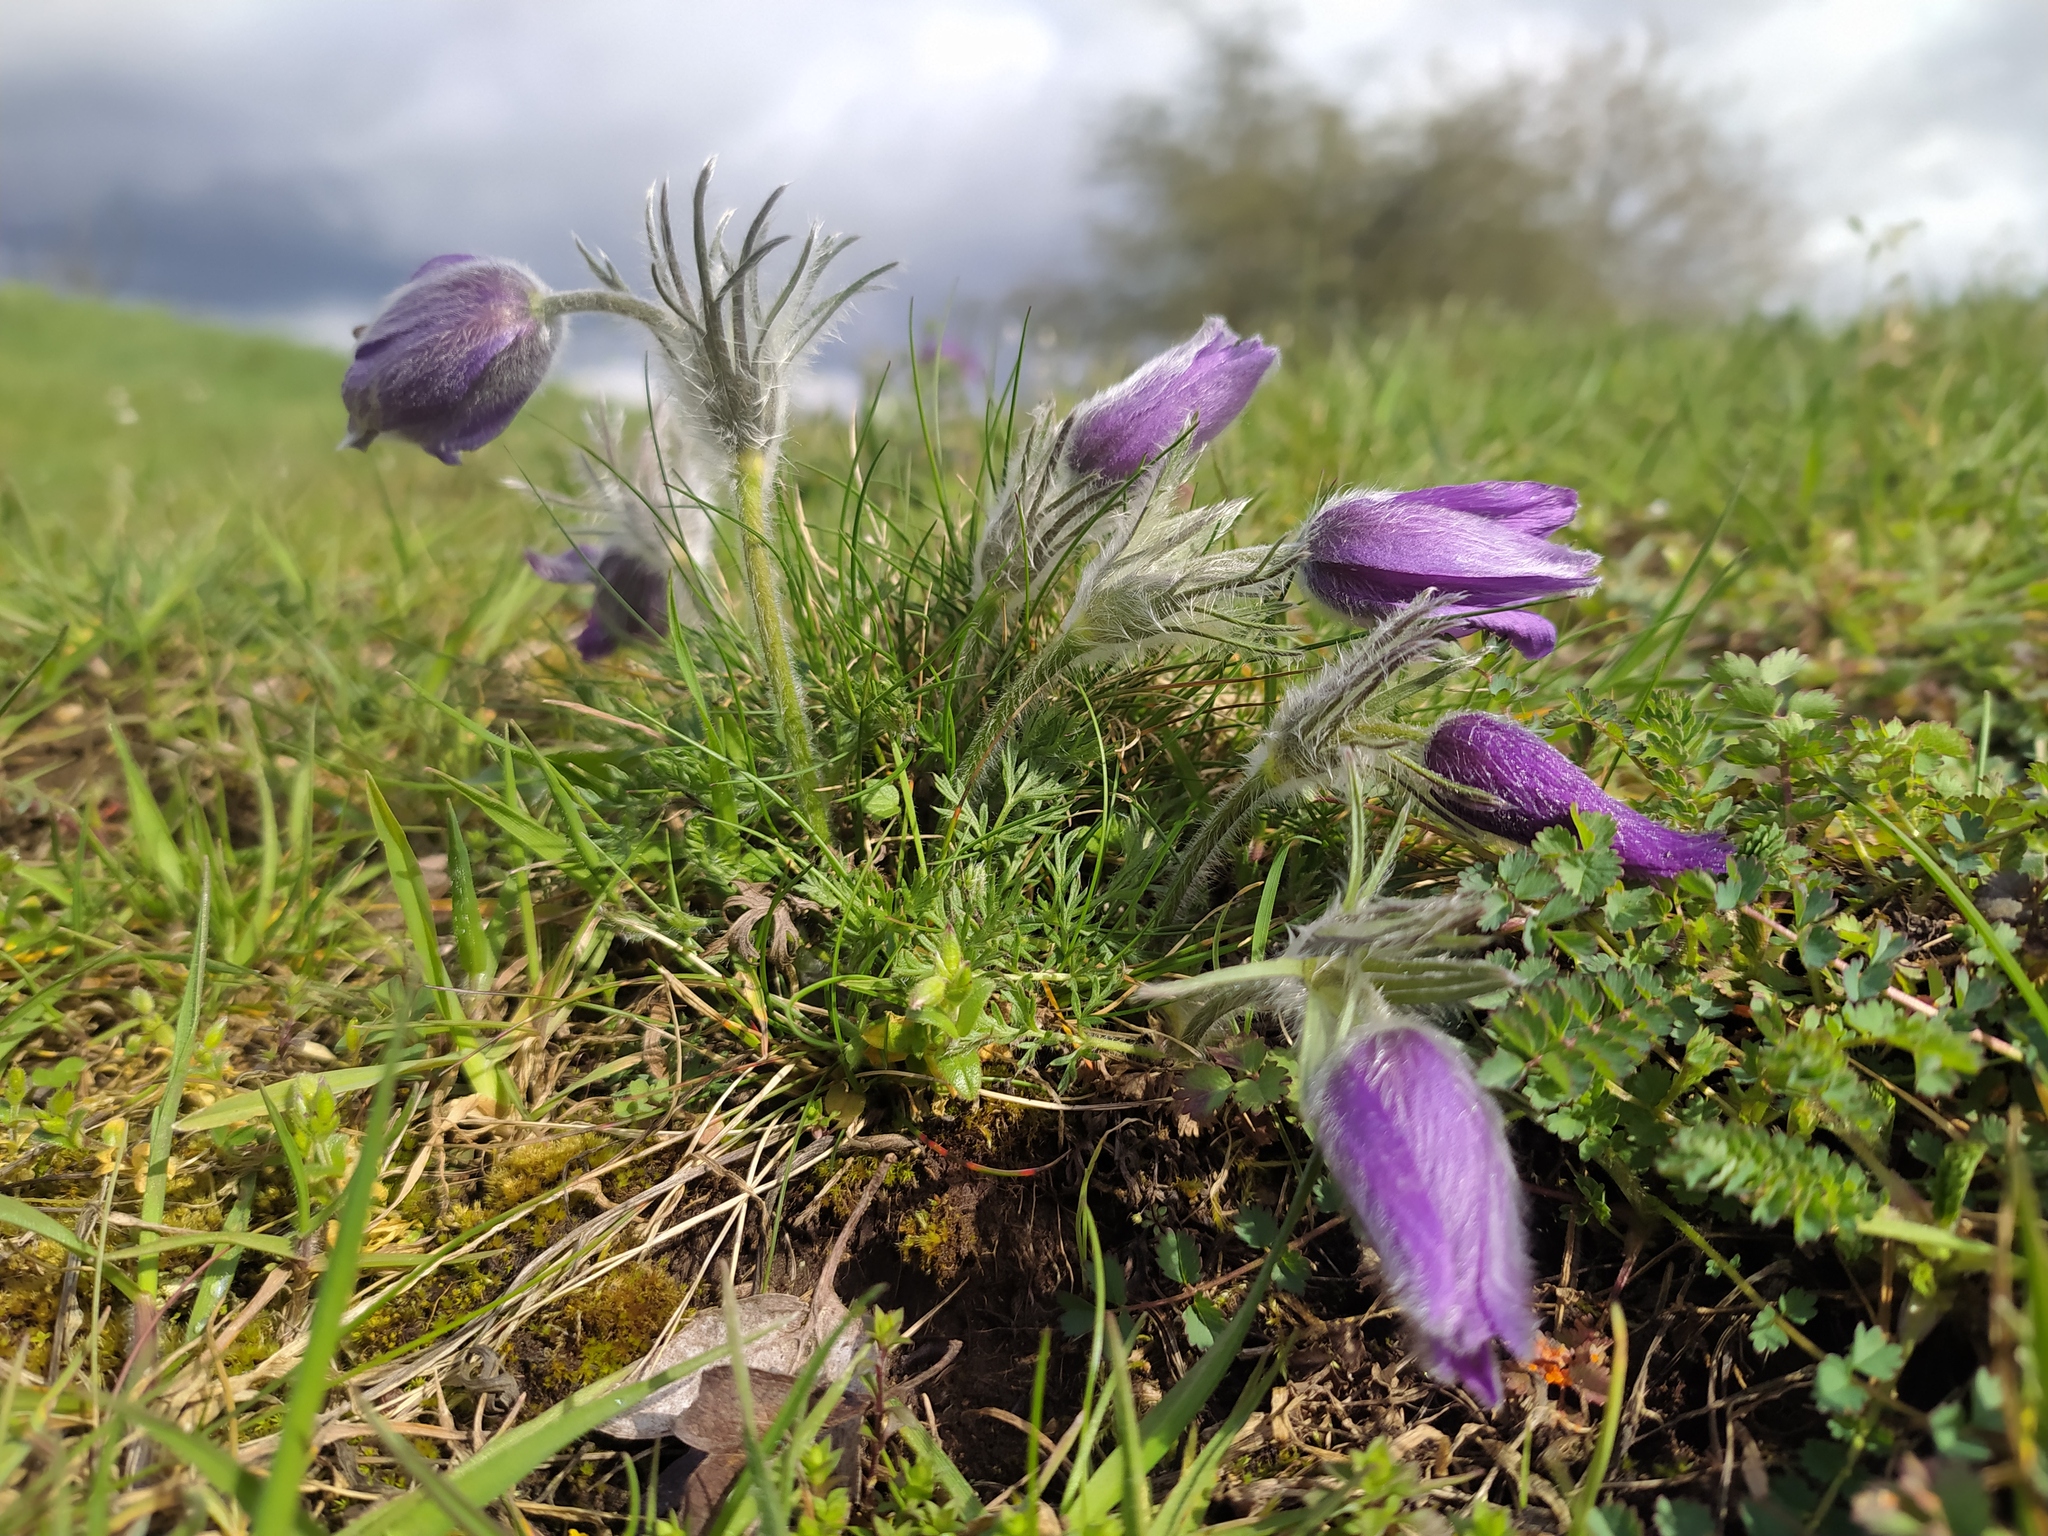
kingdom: Plantae
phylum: Tracheophyta
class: Magnoliopsida
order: Ranunculales
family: Ranunculaceae
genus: Pulsatilla
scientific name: Pulsatilla vulgaris
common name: Pasqueflower
